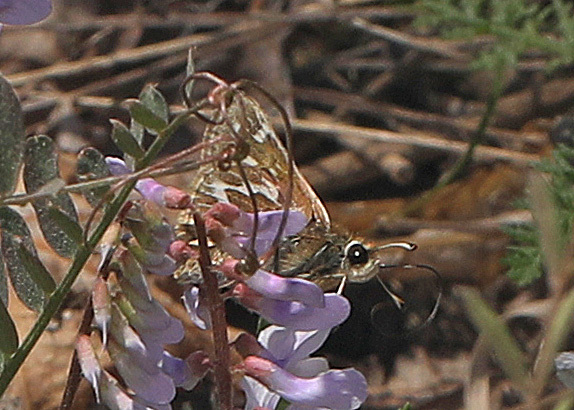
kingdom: Animalia
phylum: Arthropoda
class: Insecta
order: Lepidoptera
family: Hesperiidae
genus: Hesperia
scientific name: Hesperia metea
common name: Cobweb skipper
